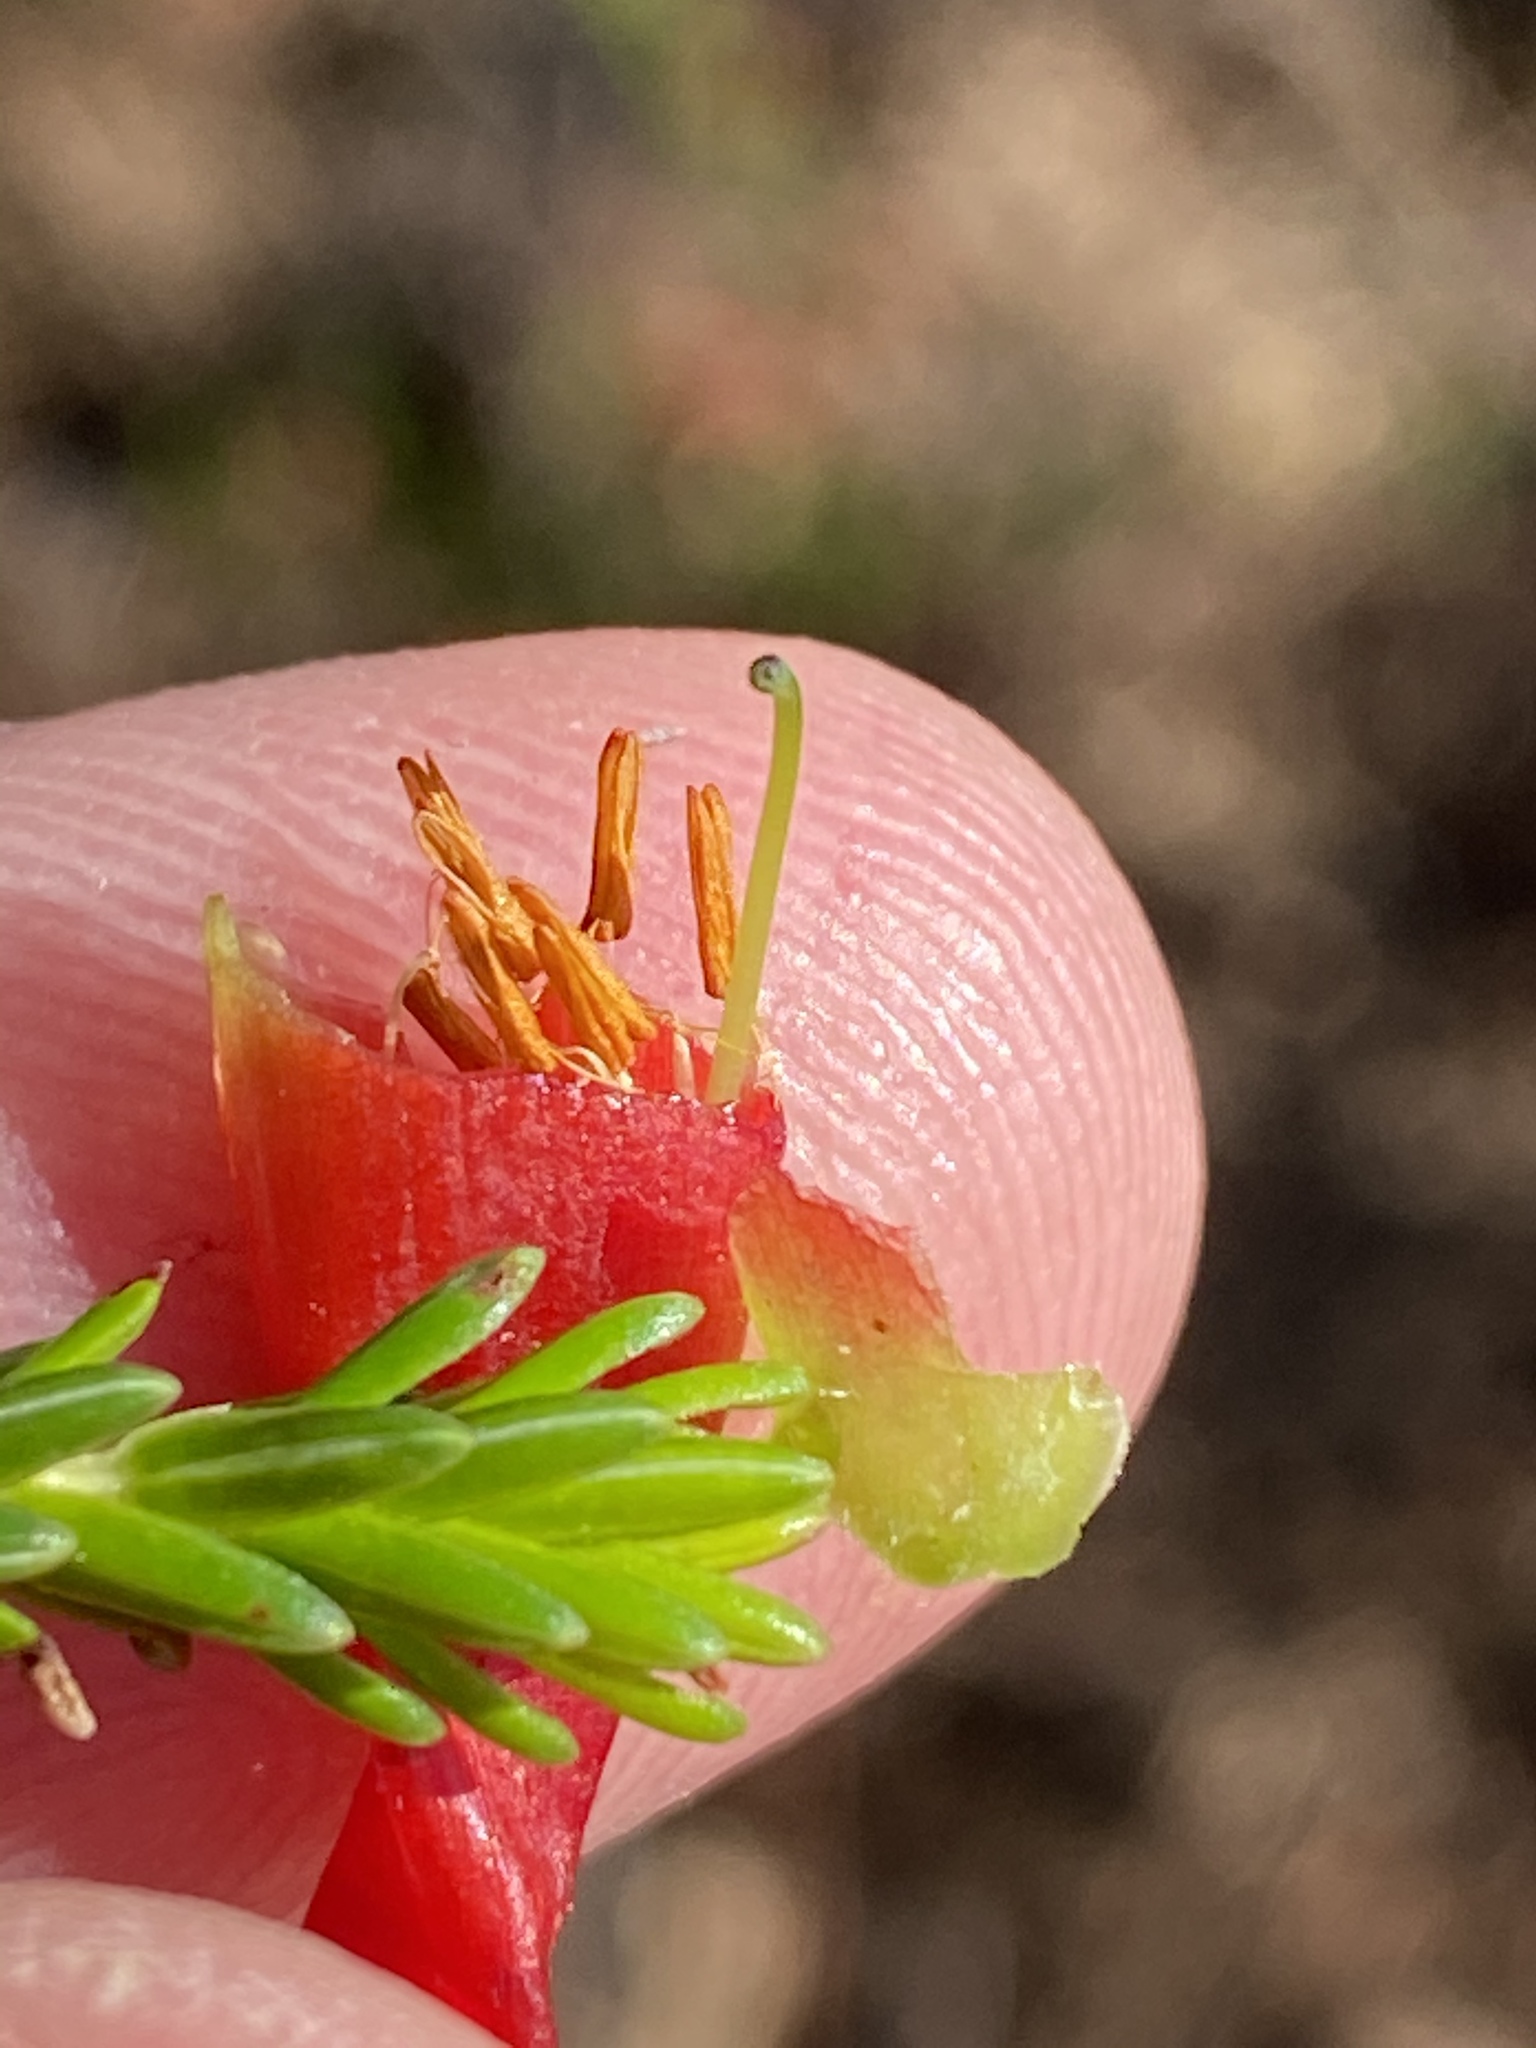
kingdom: Plantae
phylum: Tracheophyta
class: Magnoliopsida
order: Ericales
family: Ericaceae
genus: Erica
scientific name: Erica discolor
